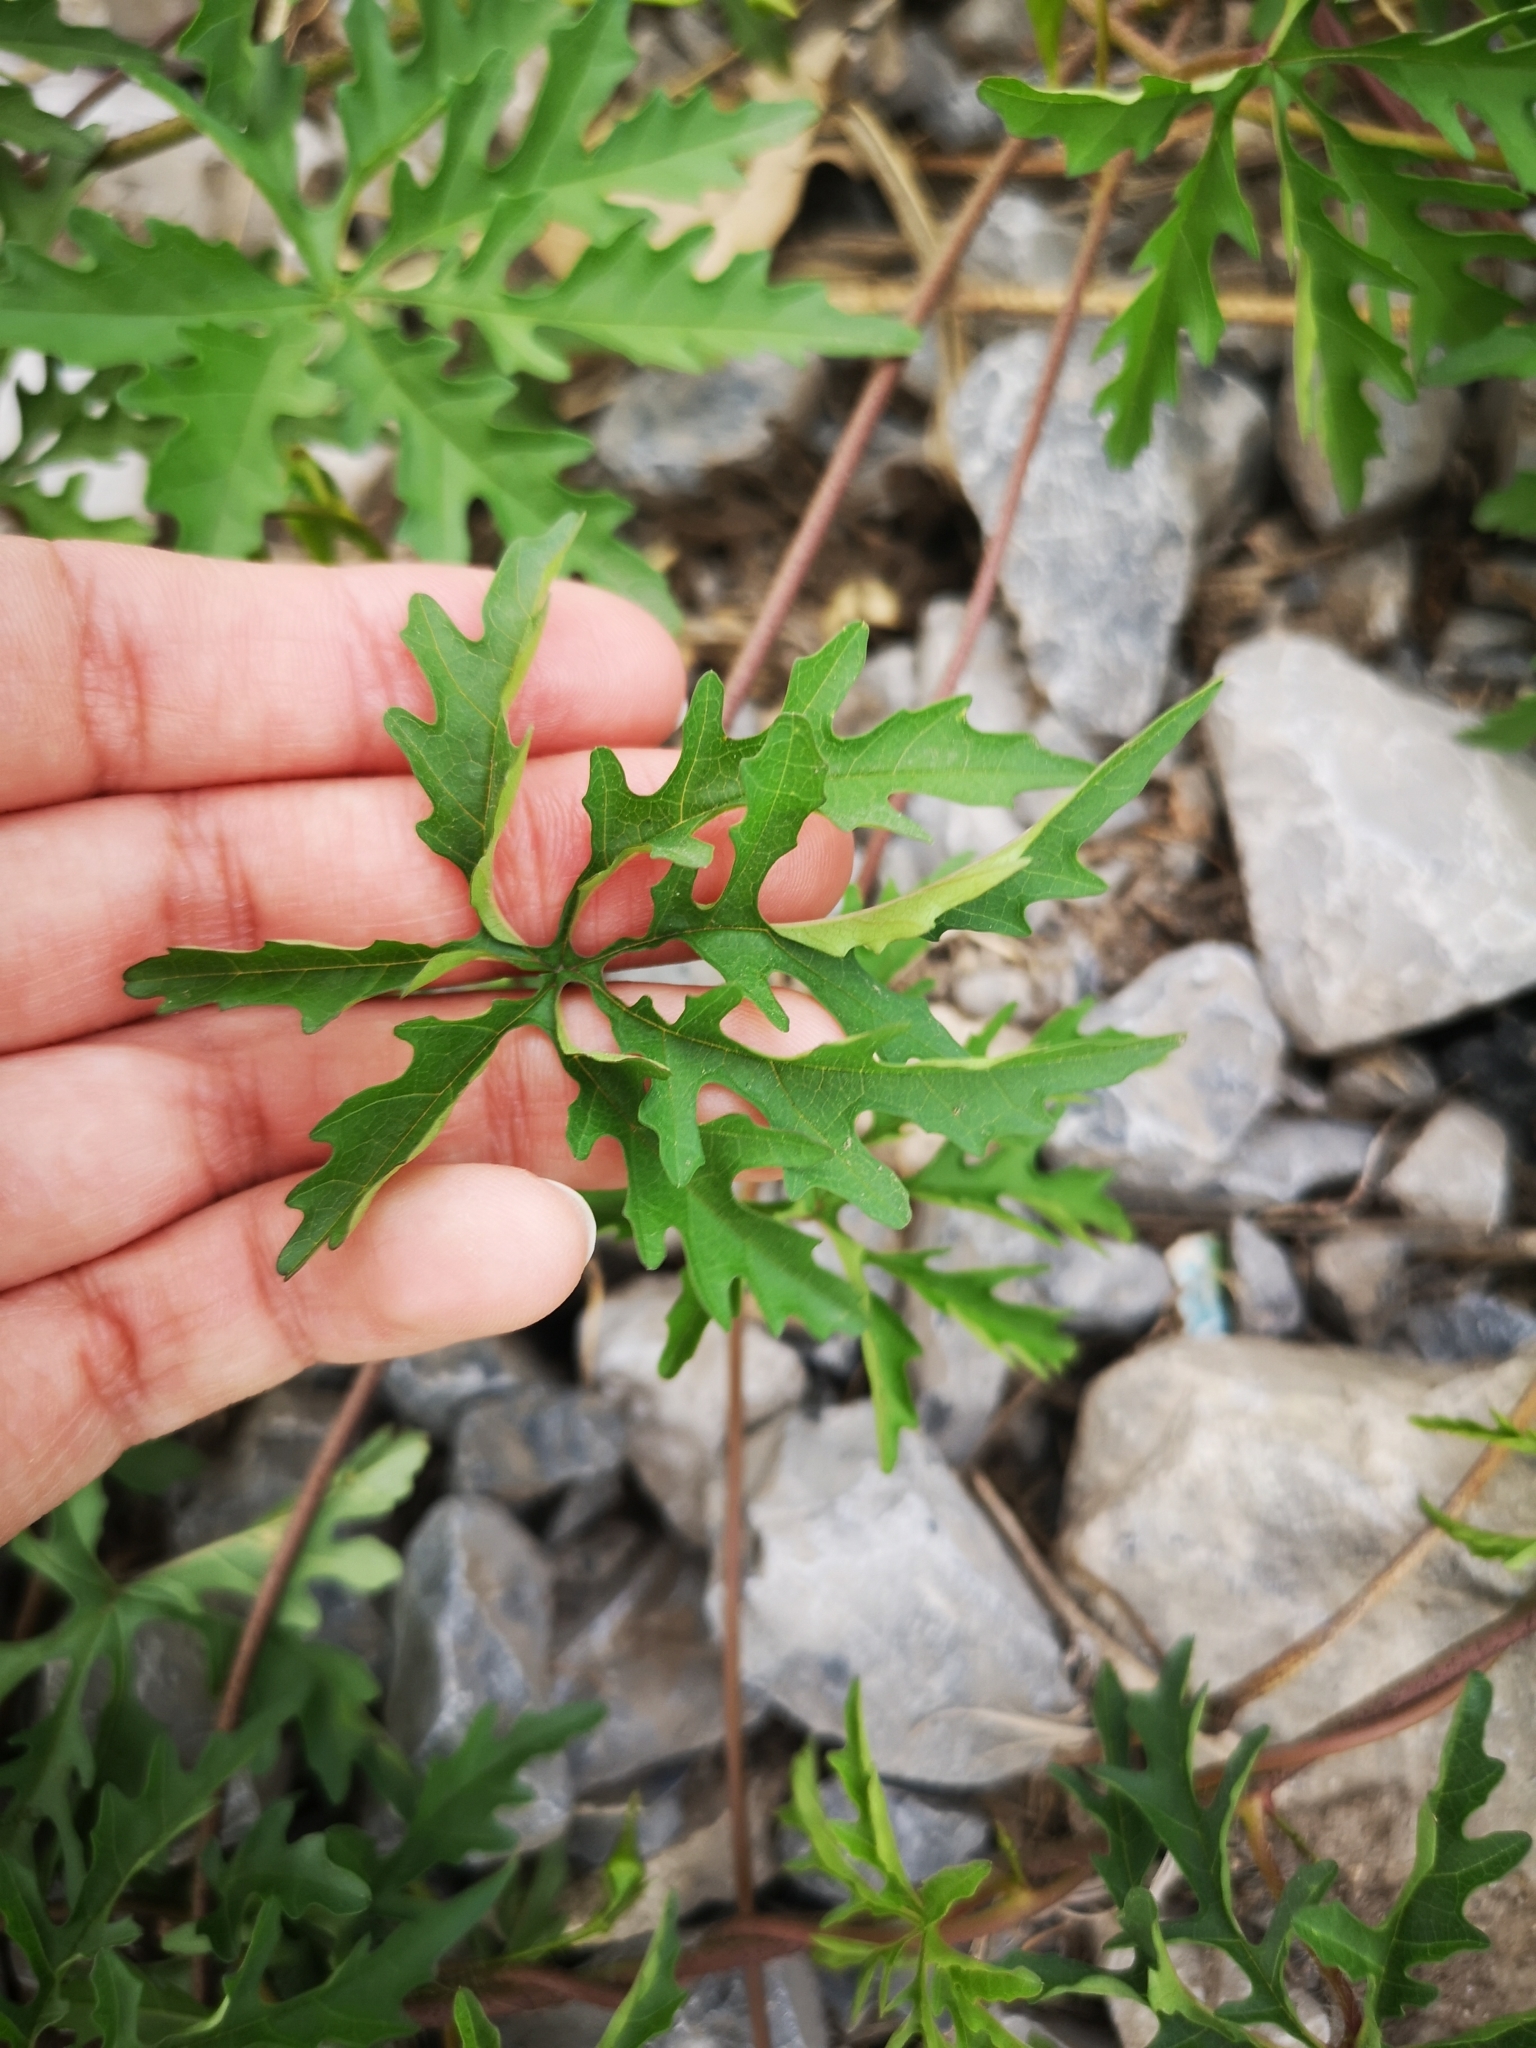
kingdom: Plantae
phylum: Tracheophyta
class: Magnoliopsida
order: Solanales
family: Convolvulaceae
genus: Distimake
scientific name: Distimake dissectus
